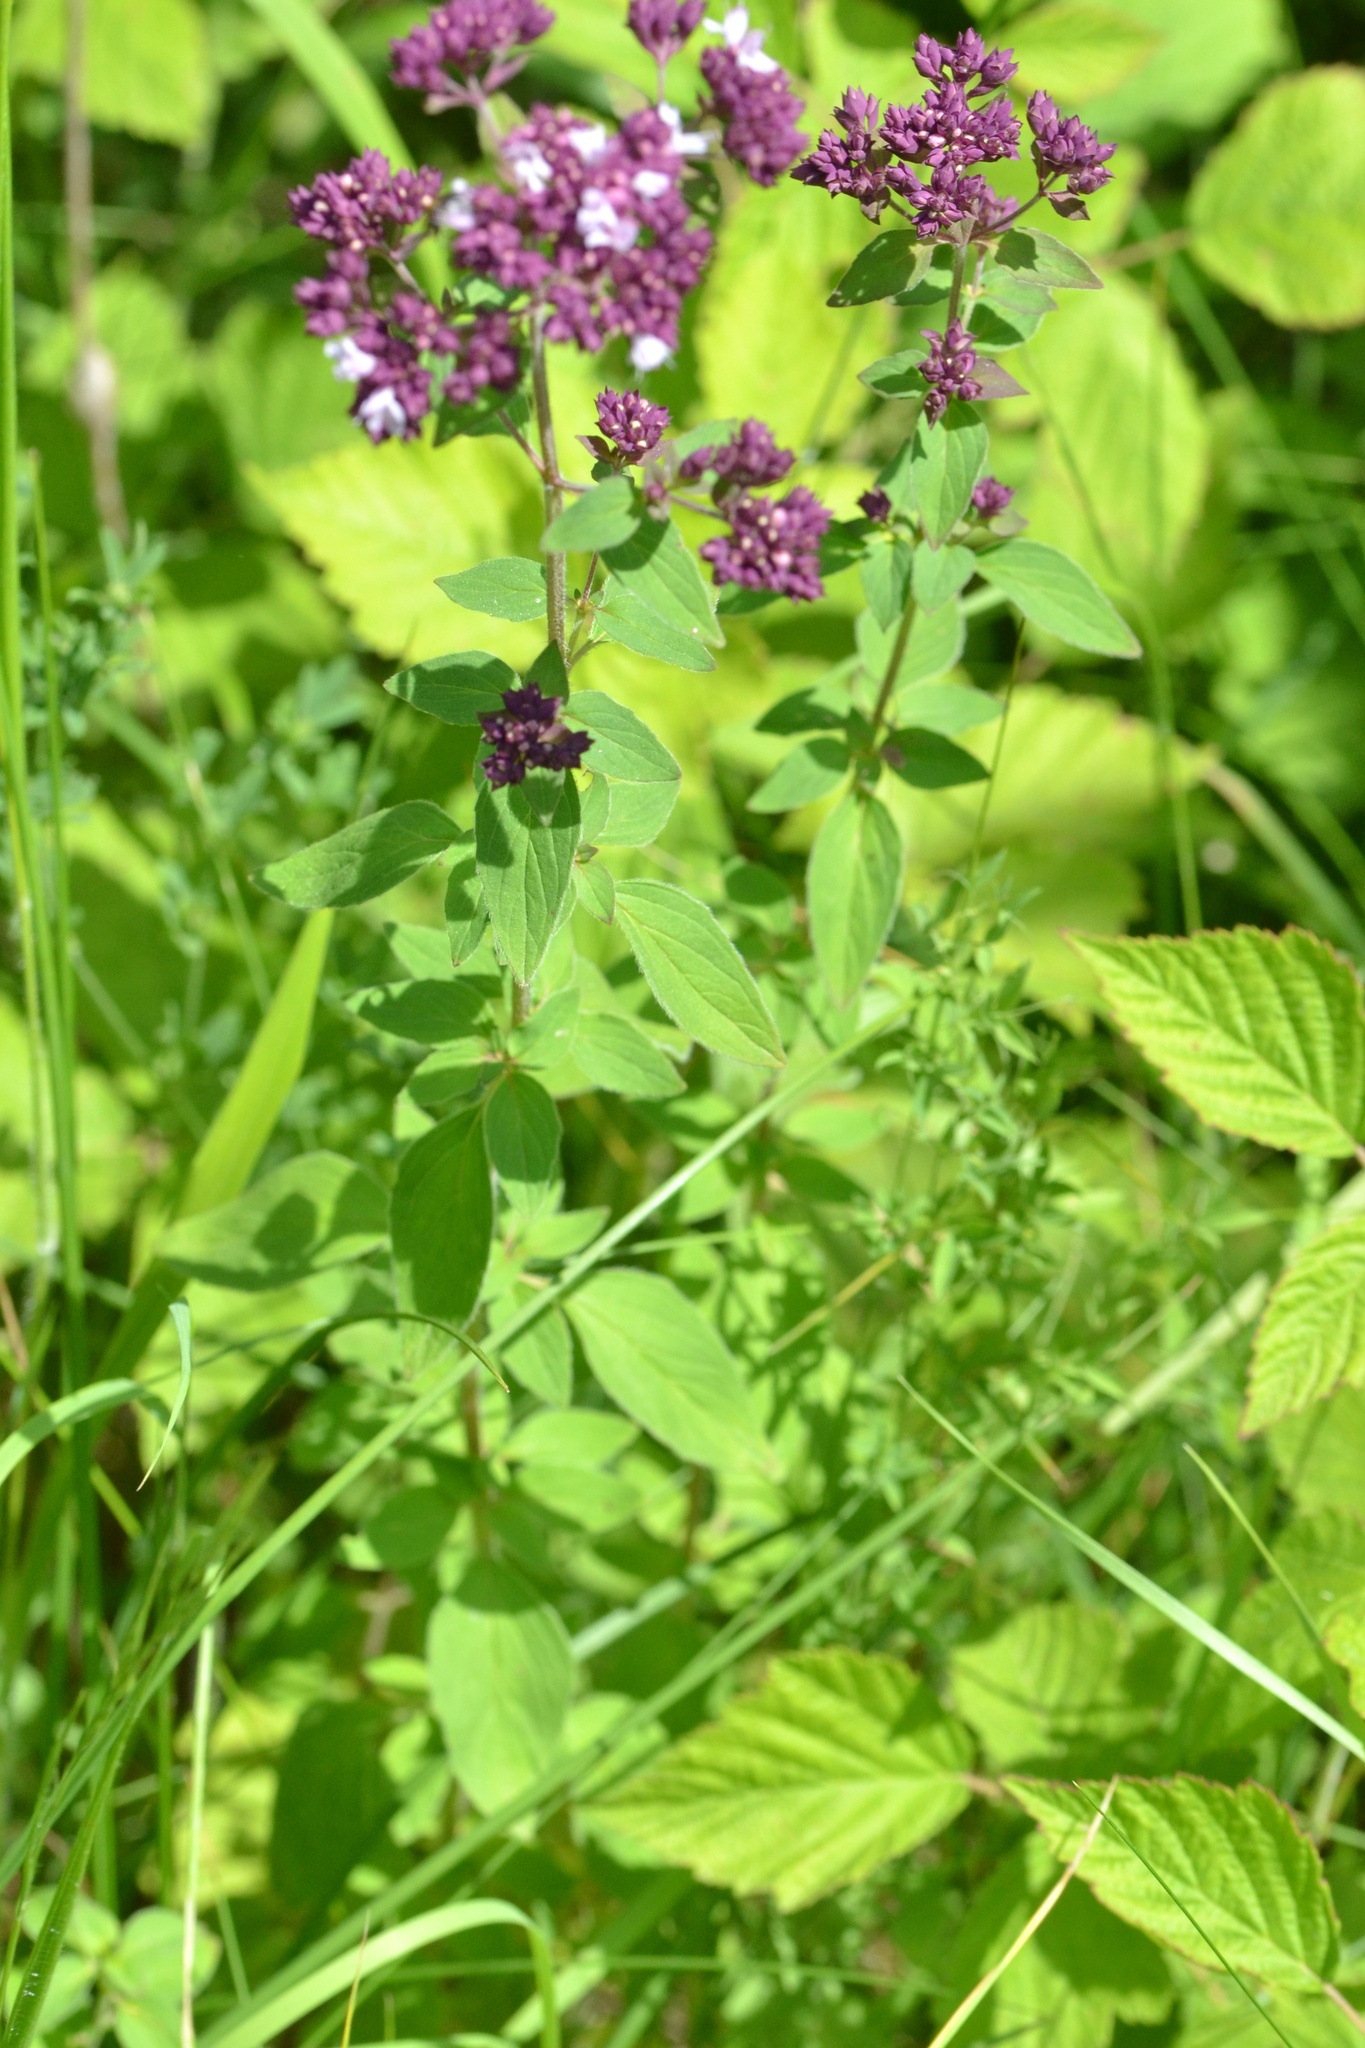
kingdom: Plantae
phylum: Tracheophyta
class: Magnoliopsida
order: Lamiales
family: Lamiaceae
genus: Origanum
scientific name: Origanum vulgare
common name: Wild marjoram
